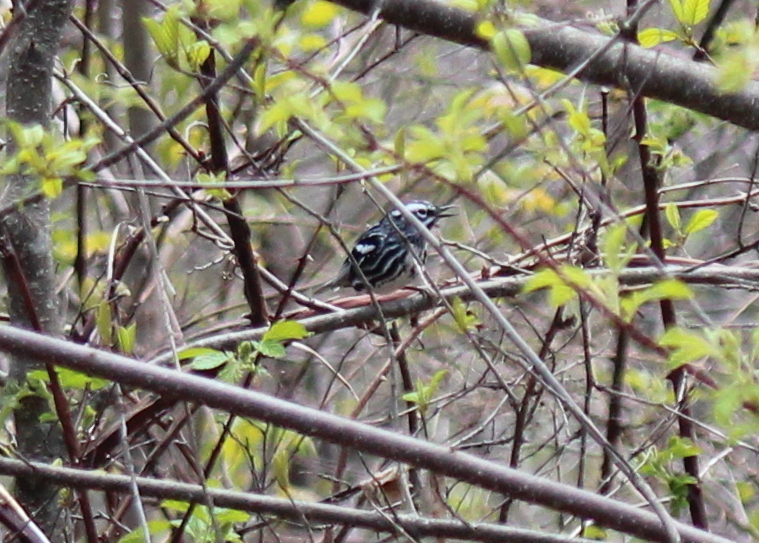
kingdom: Animalia
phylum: Chordata
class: Aves
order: Passeriformes
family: Parulidae
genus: Mniotilta
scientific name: Mniotilta varia
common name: Black-and-white warbler
